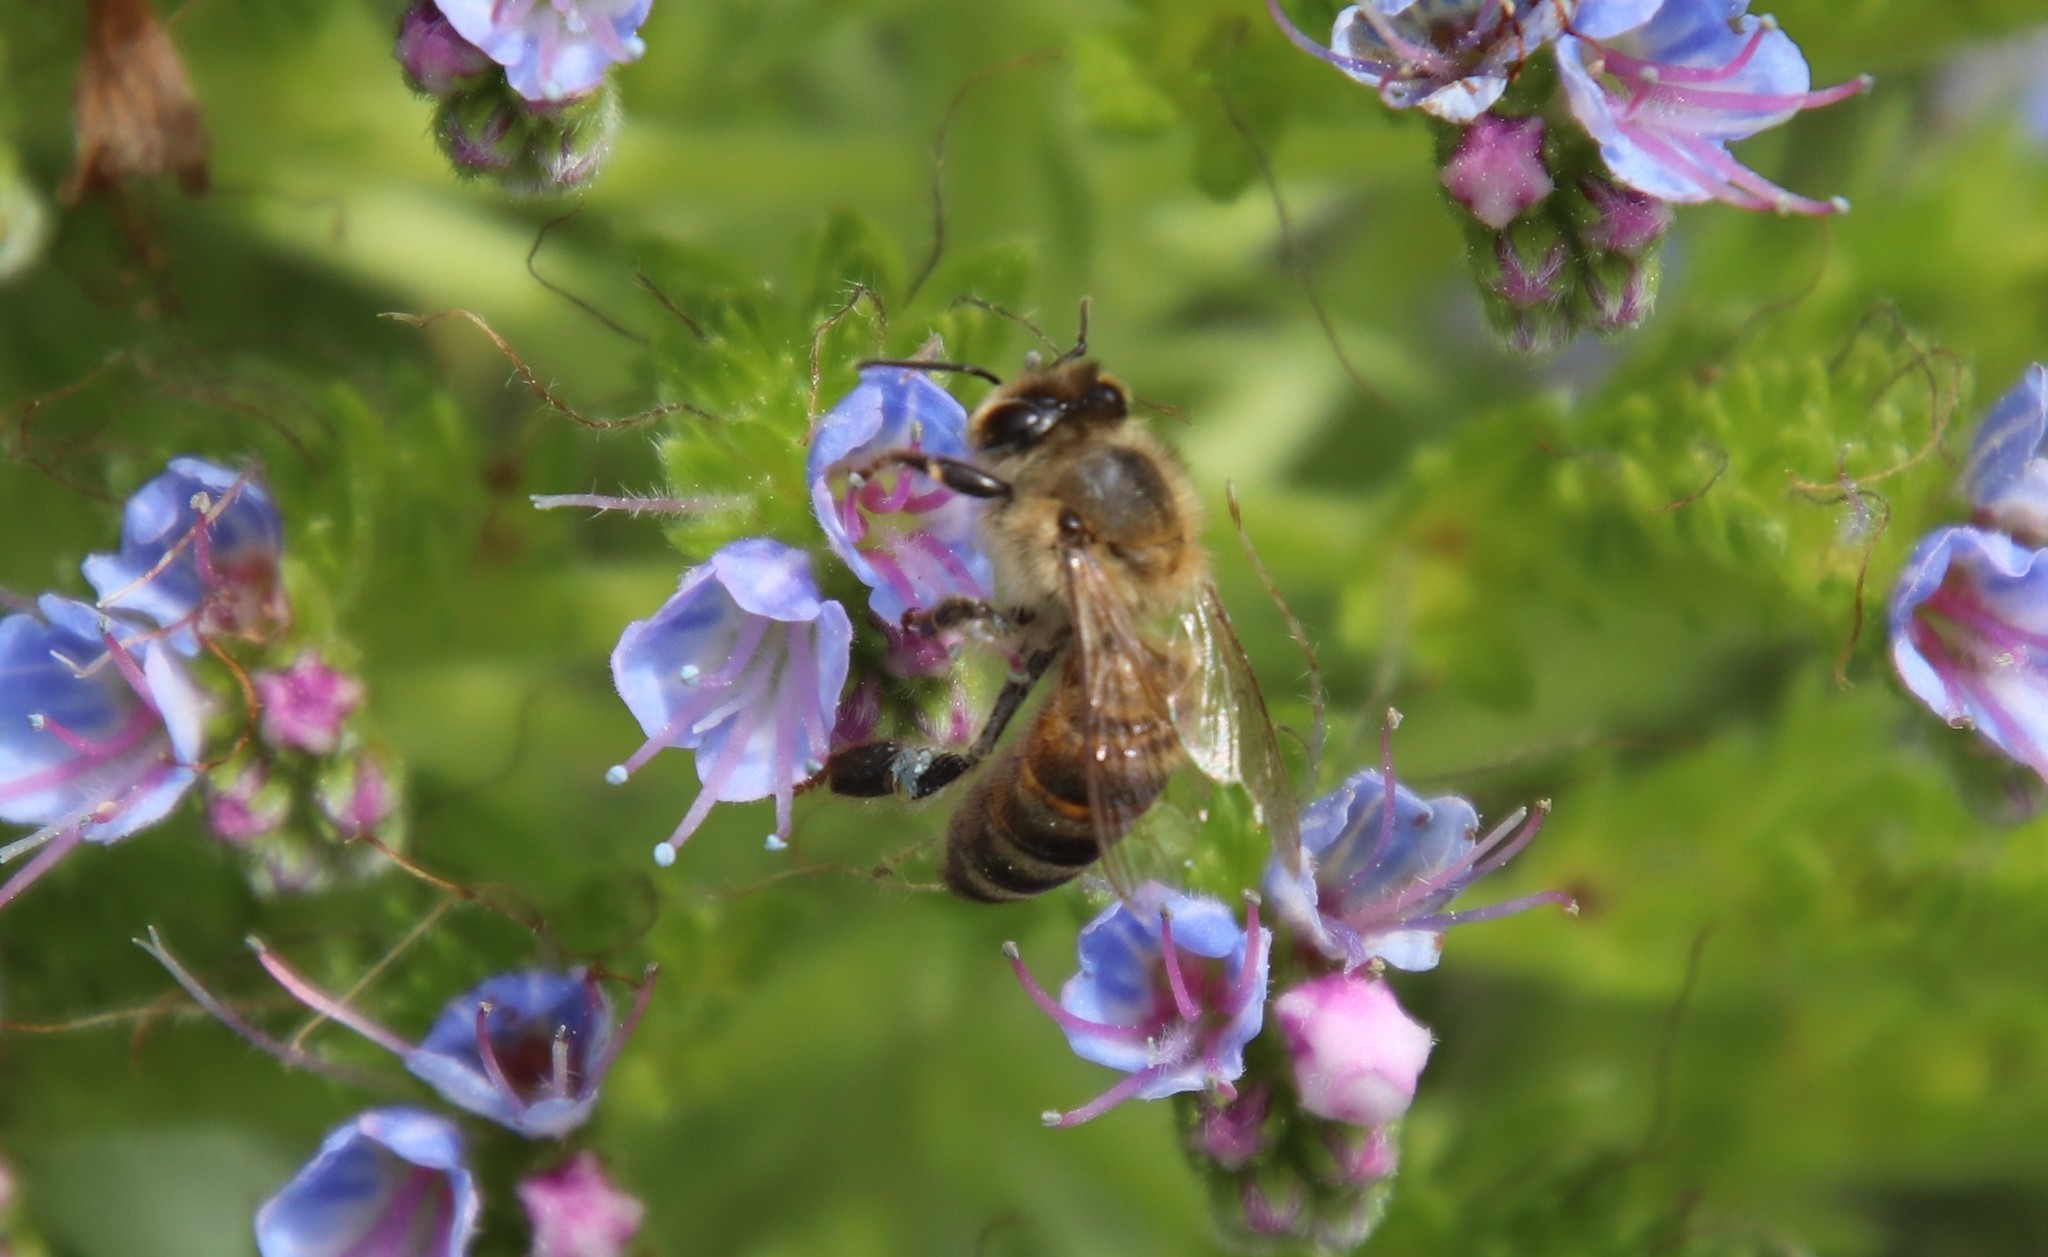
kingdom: Animalia
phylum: Arthropoda
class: Insecta
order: Hymenoptera
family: Apidae
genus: Apis
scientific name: Apis mellifera
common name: Honey bee
